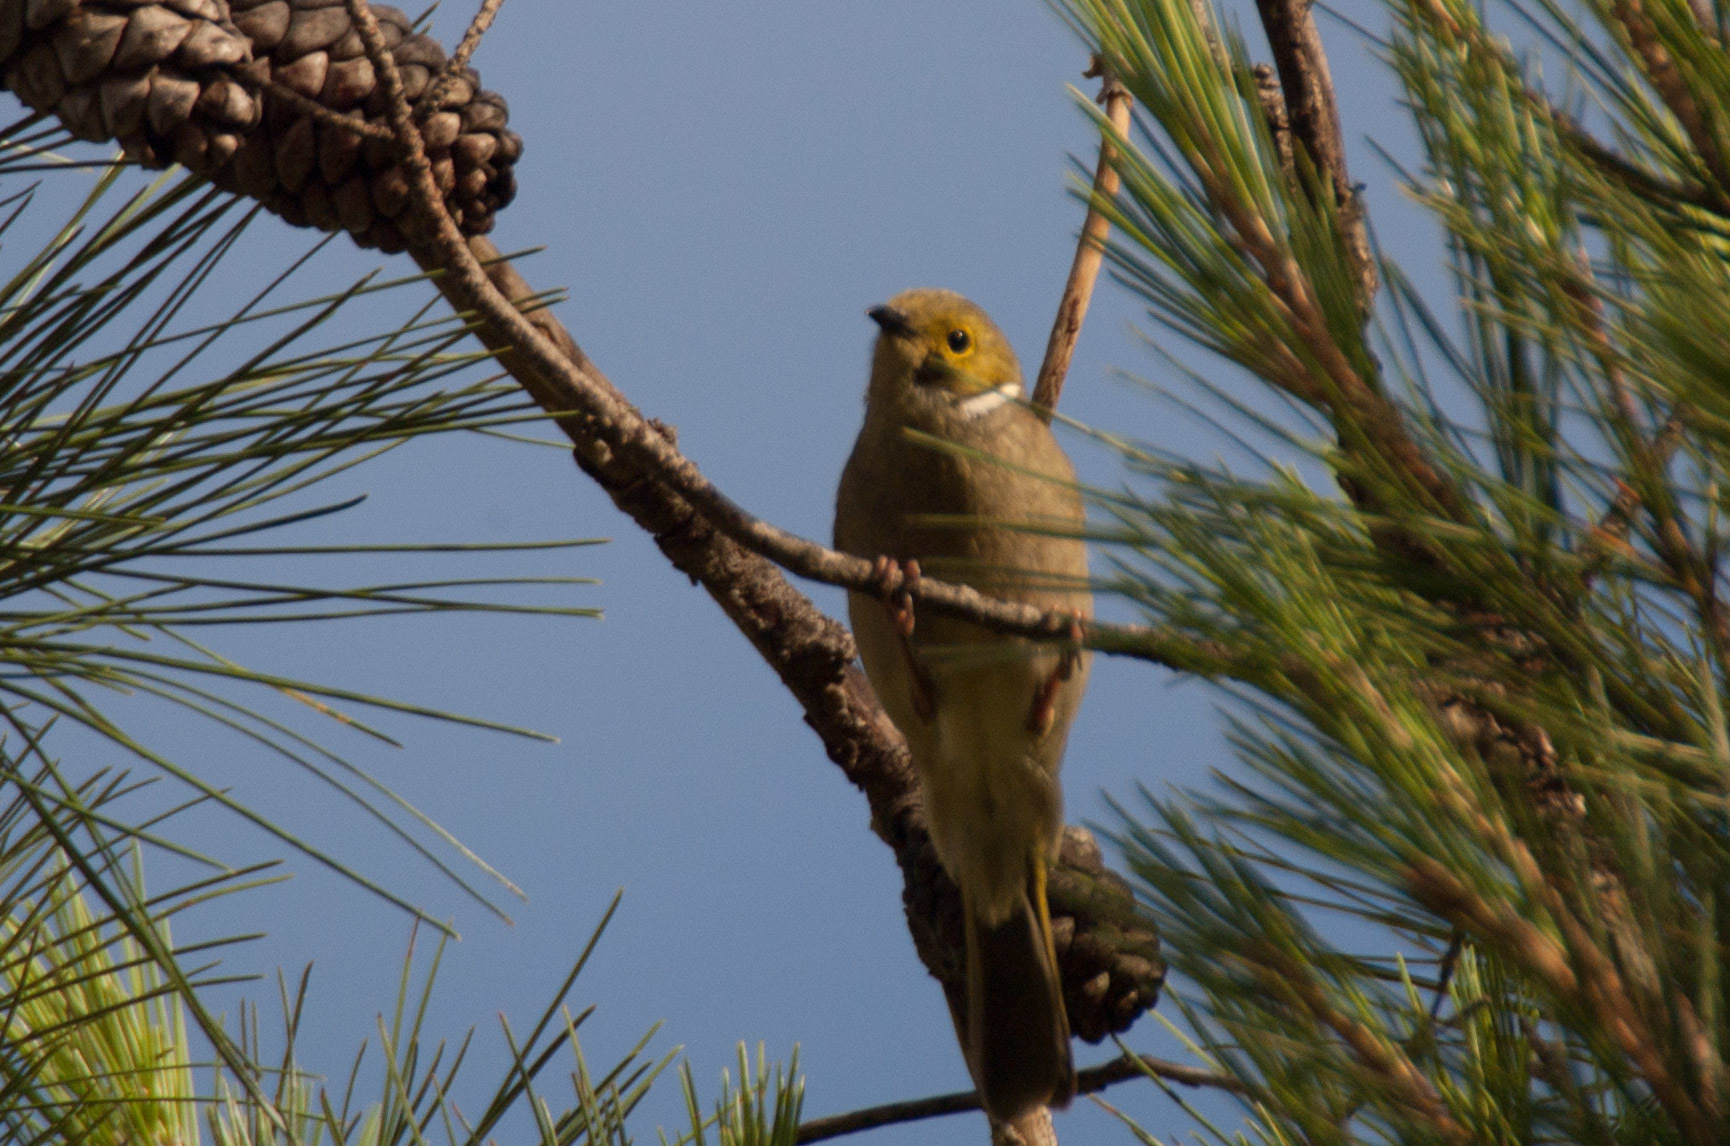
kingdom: Animalia
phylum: Chordata
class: Aves
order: Passeriformes
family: Meliphagidae
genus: Ptilotula
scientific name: Ptilotula penicillata
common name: White-plumed honeyeater
